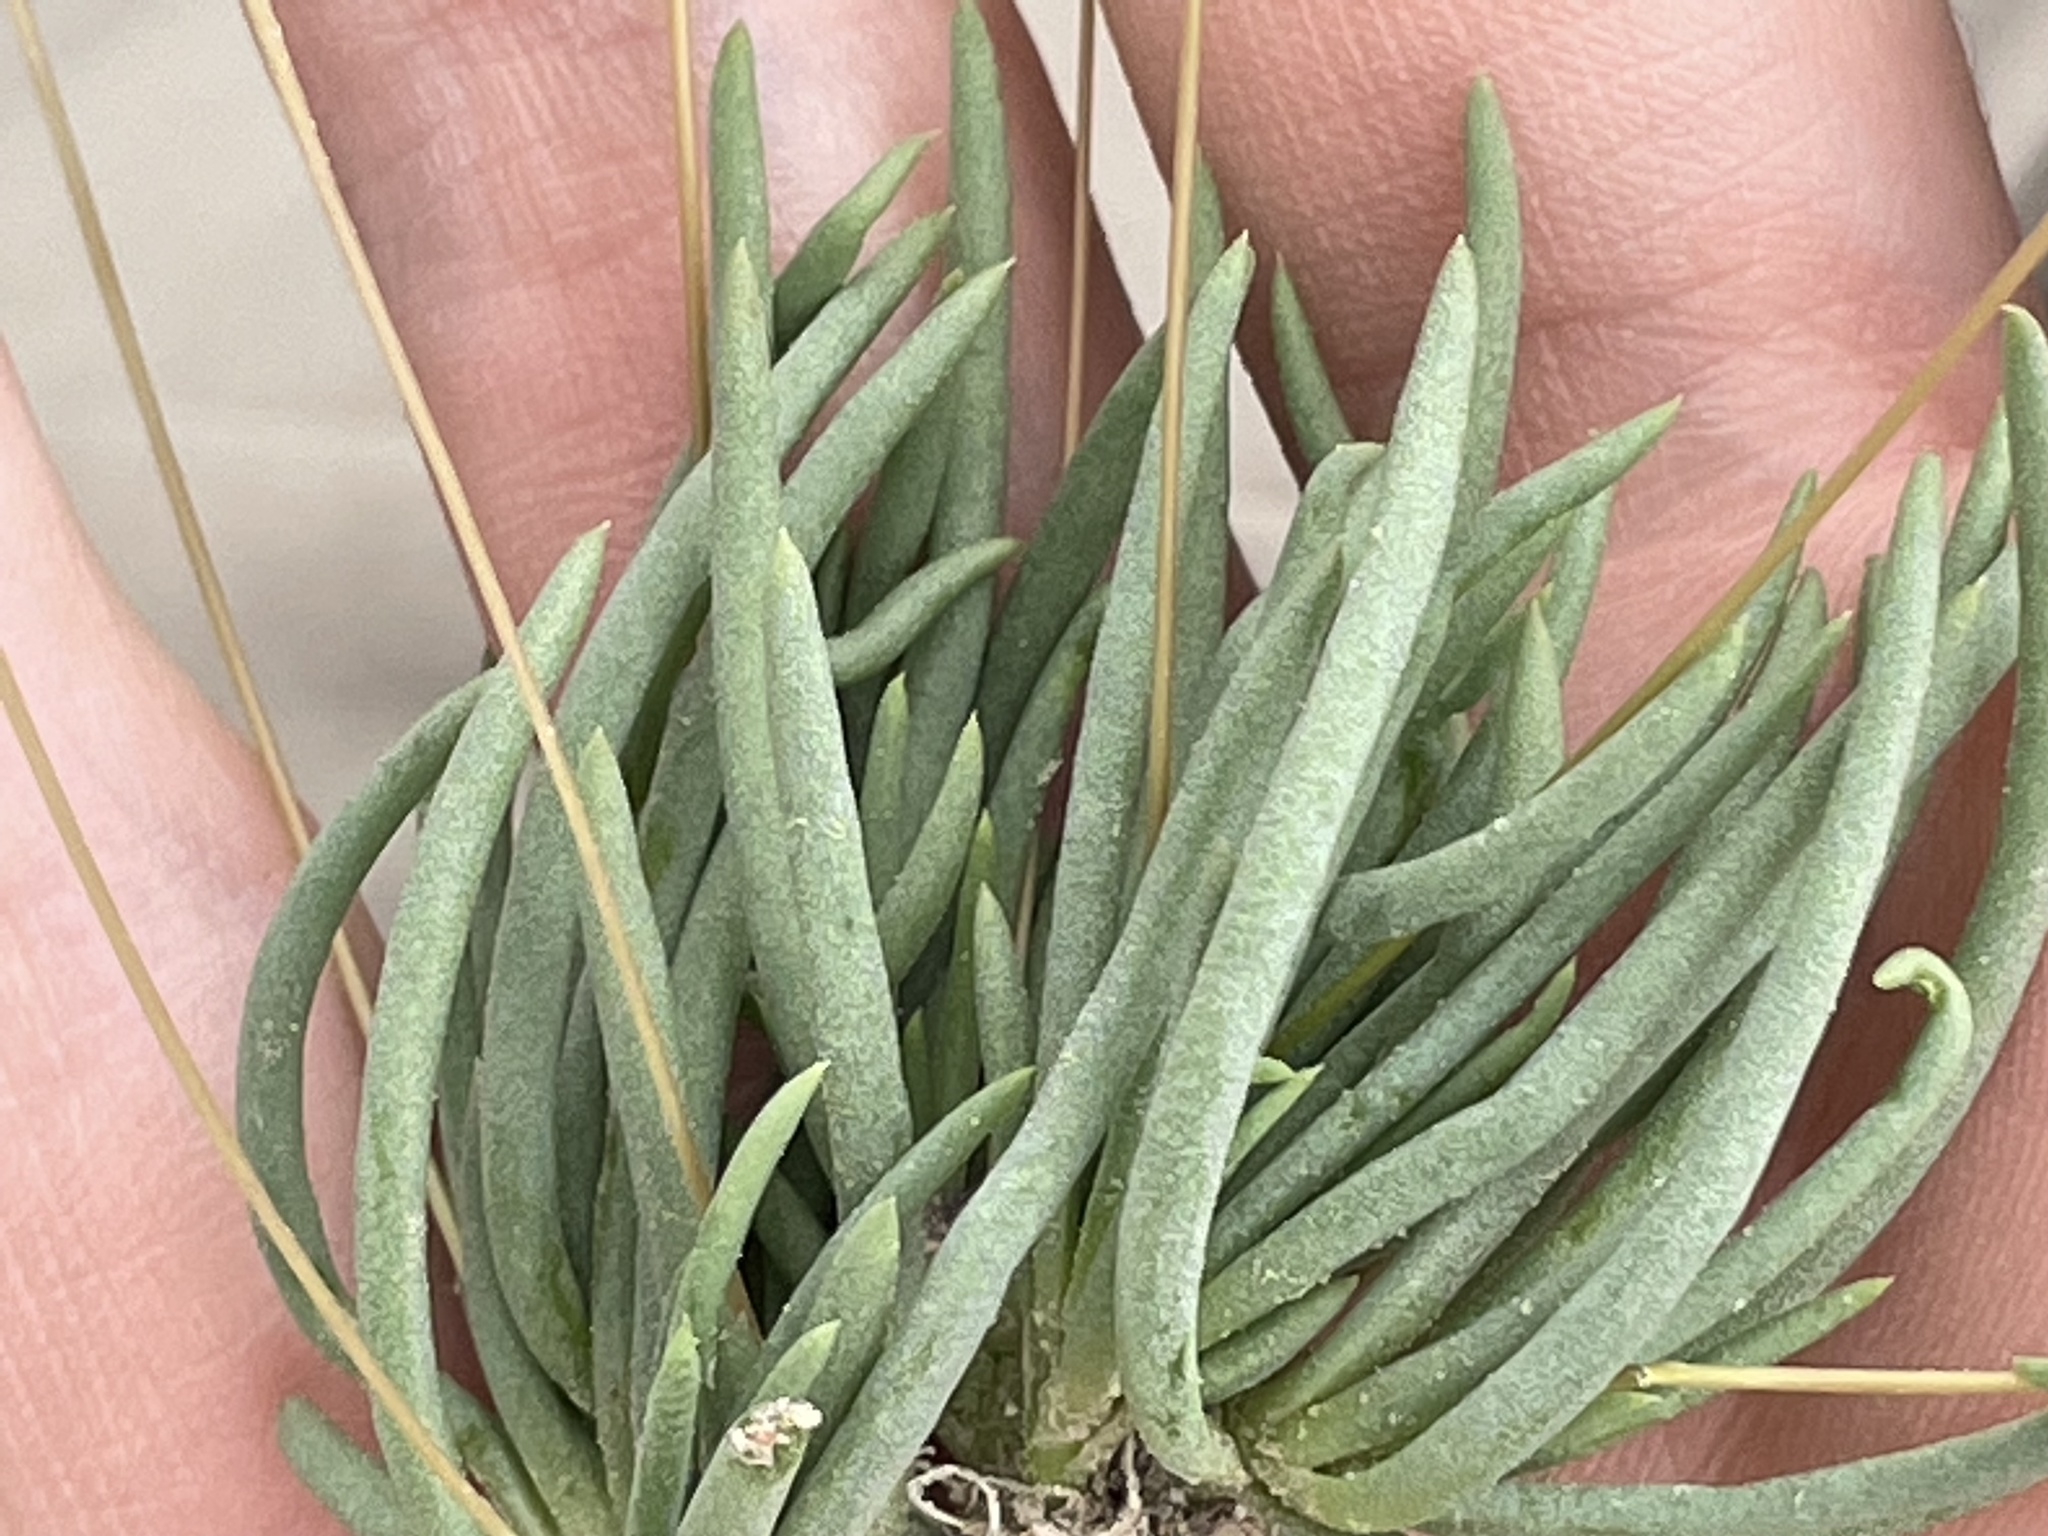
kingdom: Plantae
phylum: Tracheophyta
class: Magnoliopsida
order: Caryophyllales
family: Montiaceae
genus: Phemeranthus
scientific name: Phemeranthus confertiflorus
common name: New mexico fameflower
